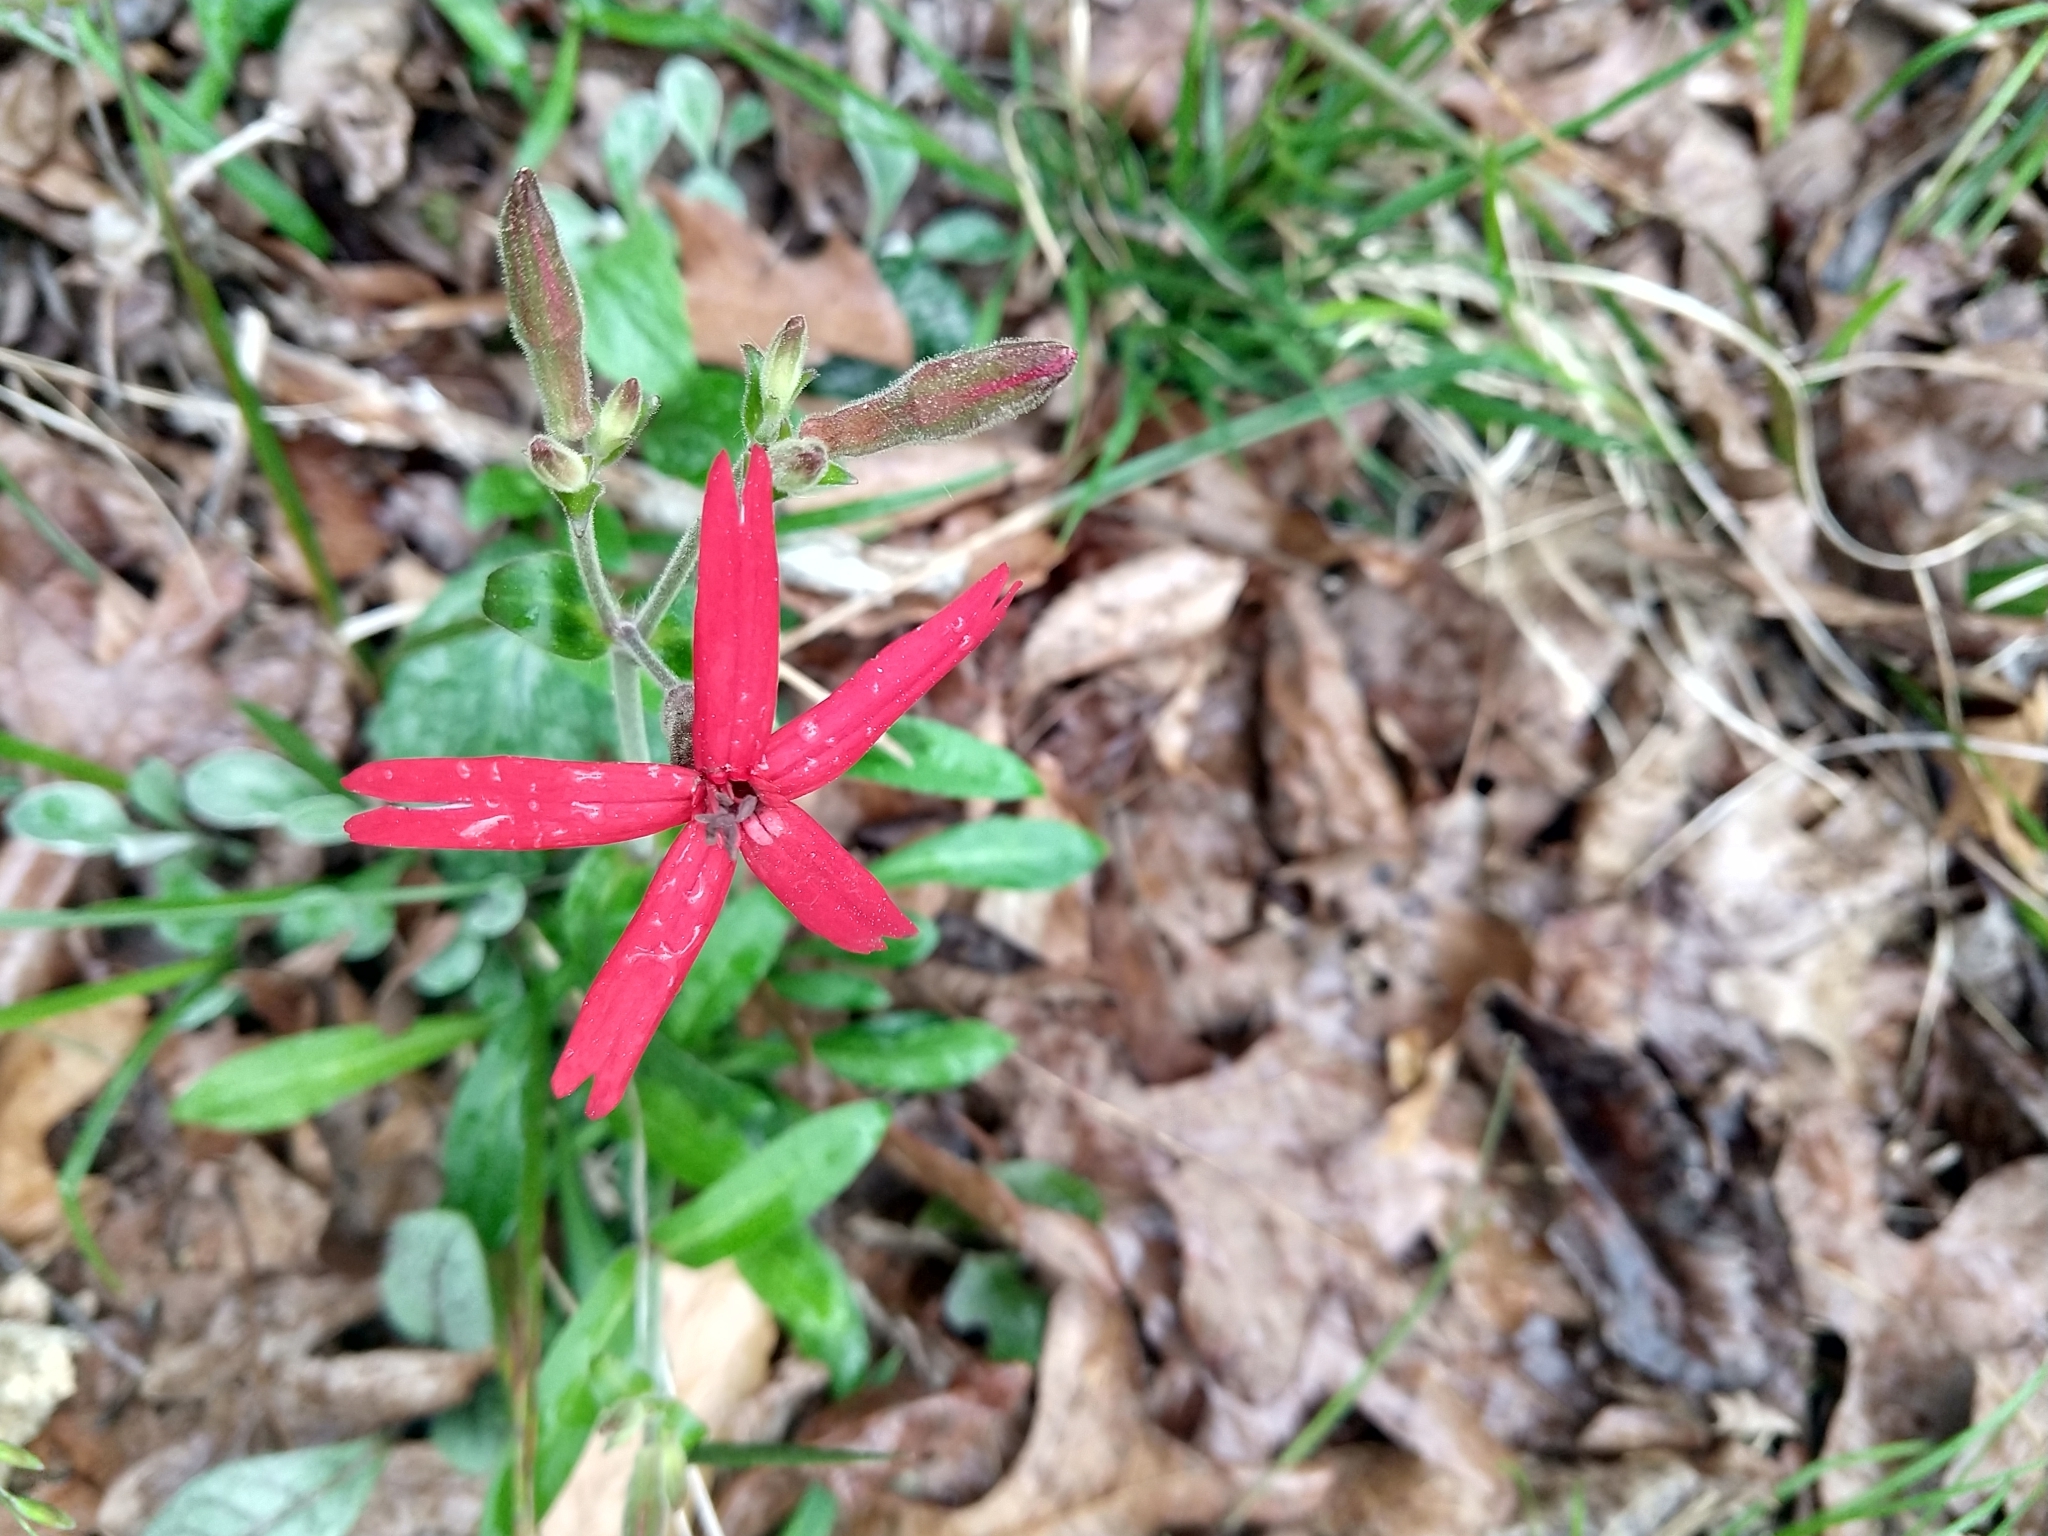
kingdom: Plantae
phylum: Tracheophyta
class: Magnoliopsida
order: Caryophyllales
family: Caryophyllaceae
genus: Silene
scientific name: Silene virginica
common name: Fire-pink
